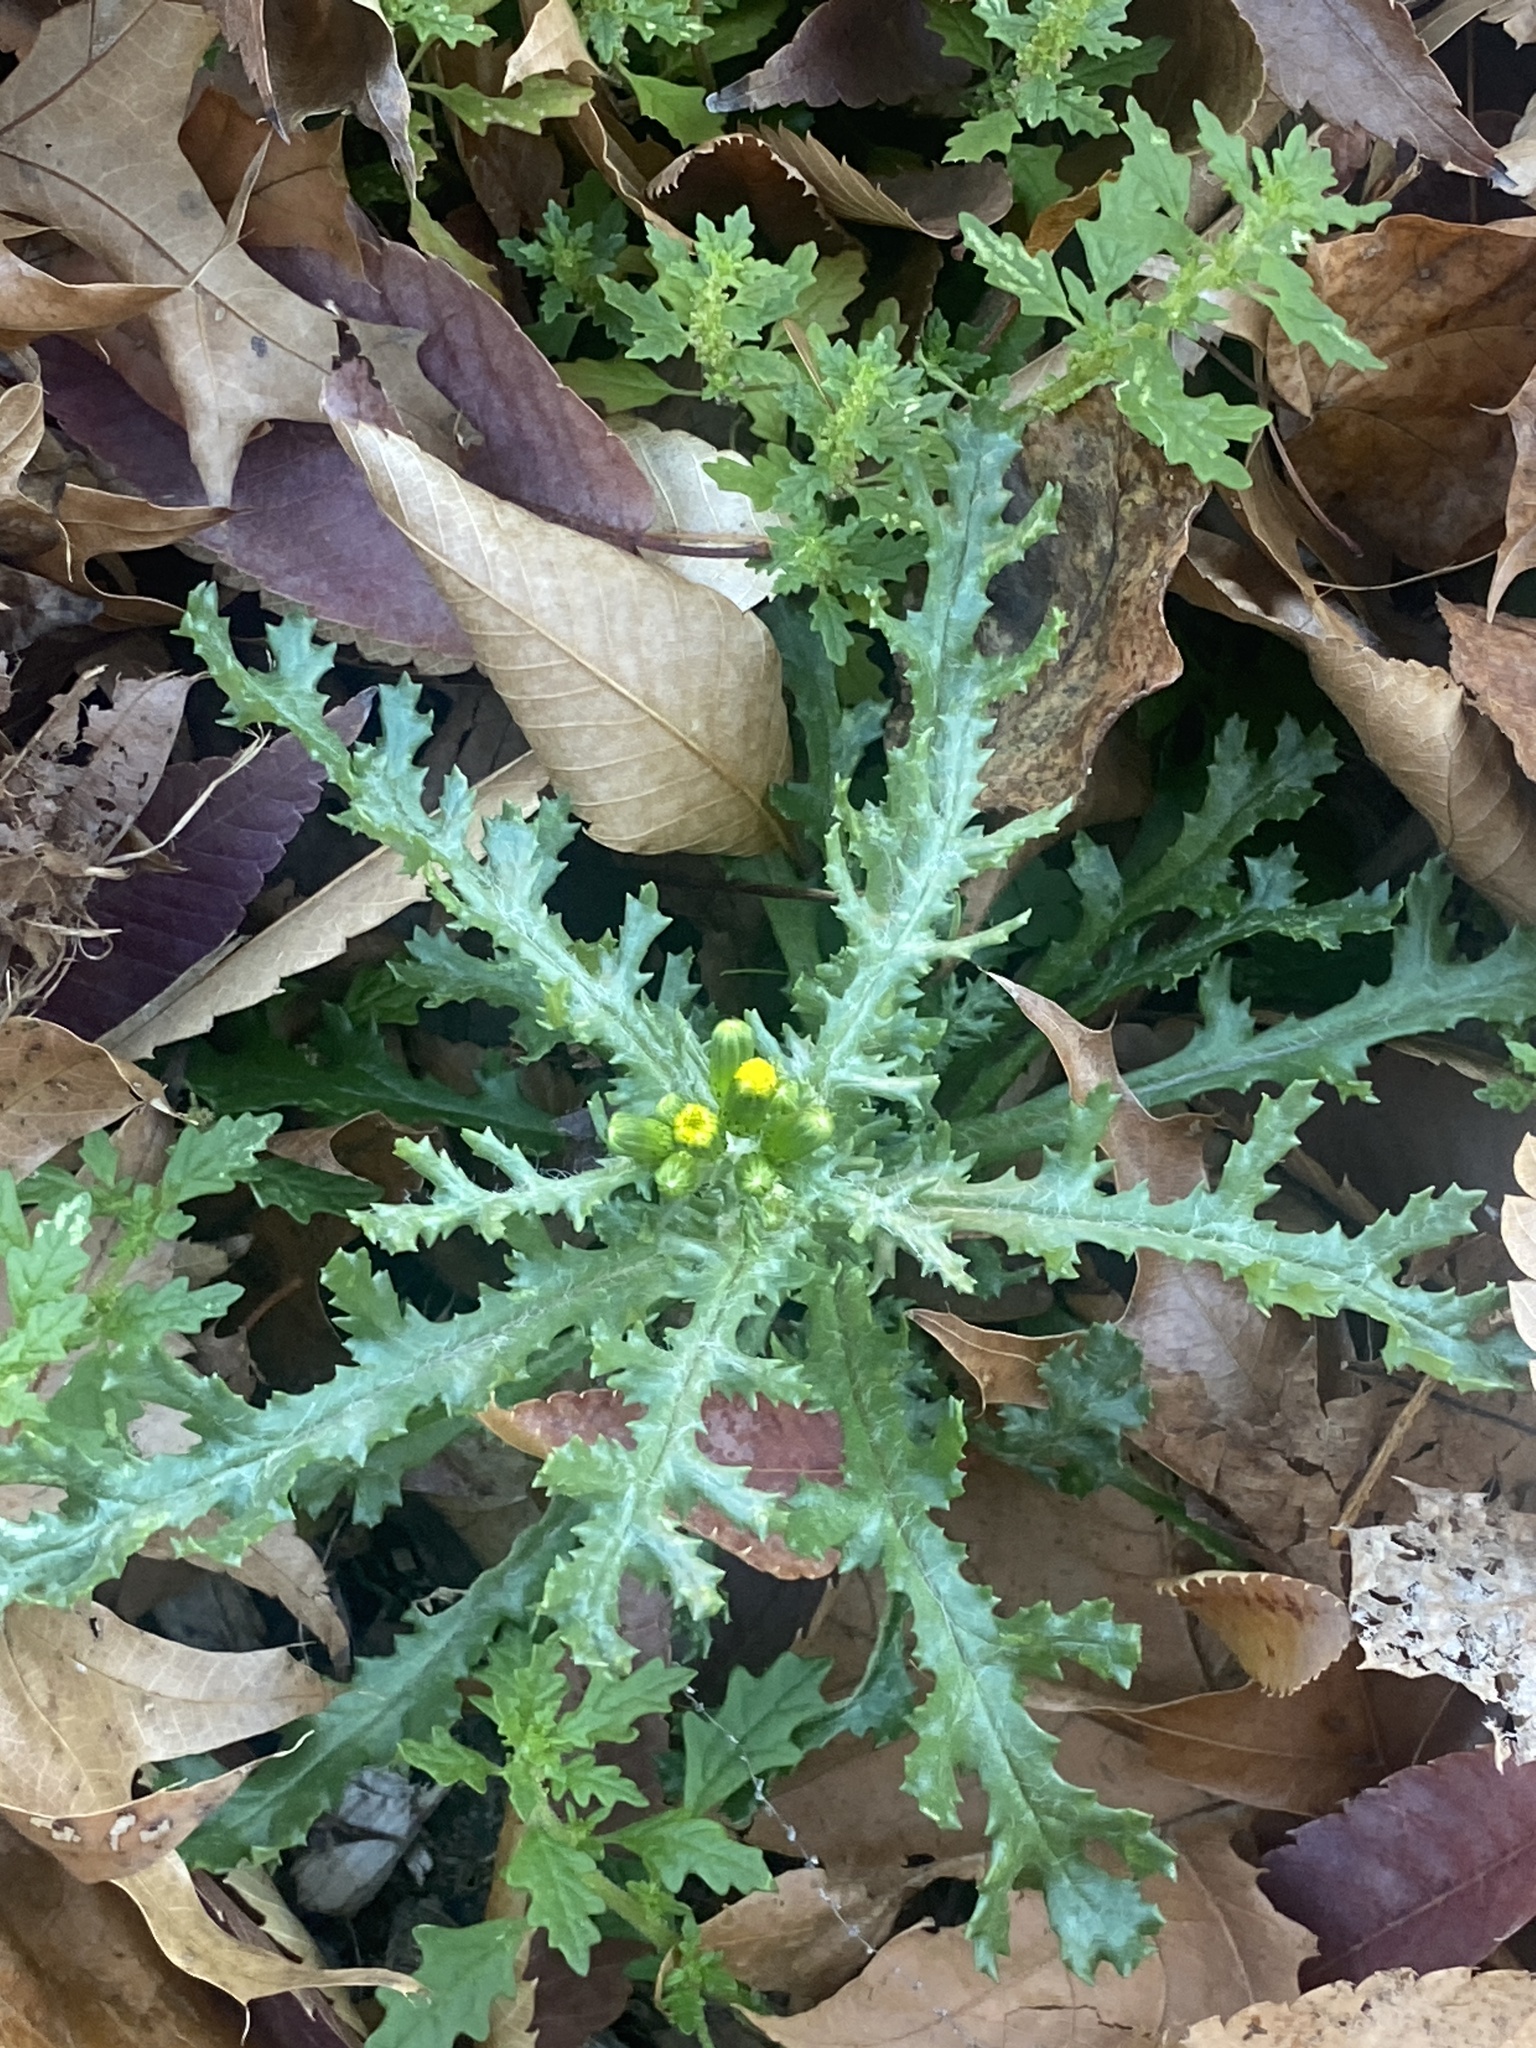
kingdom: Plantae
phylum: Tracheophyta
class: Magnoliopsida
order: Asterales
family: Asteraceae
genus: Senecio
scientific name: Senecio vulgaris
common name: Old-man-in-the-spring
